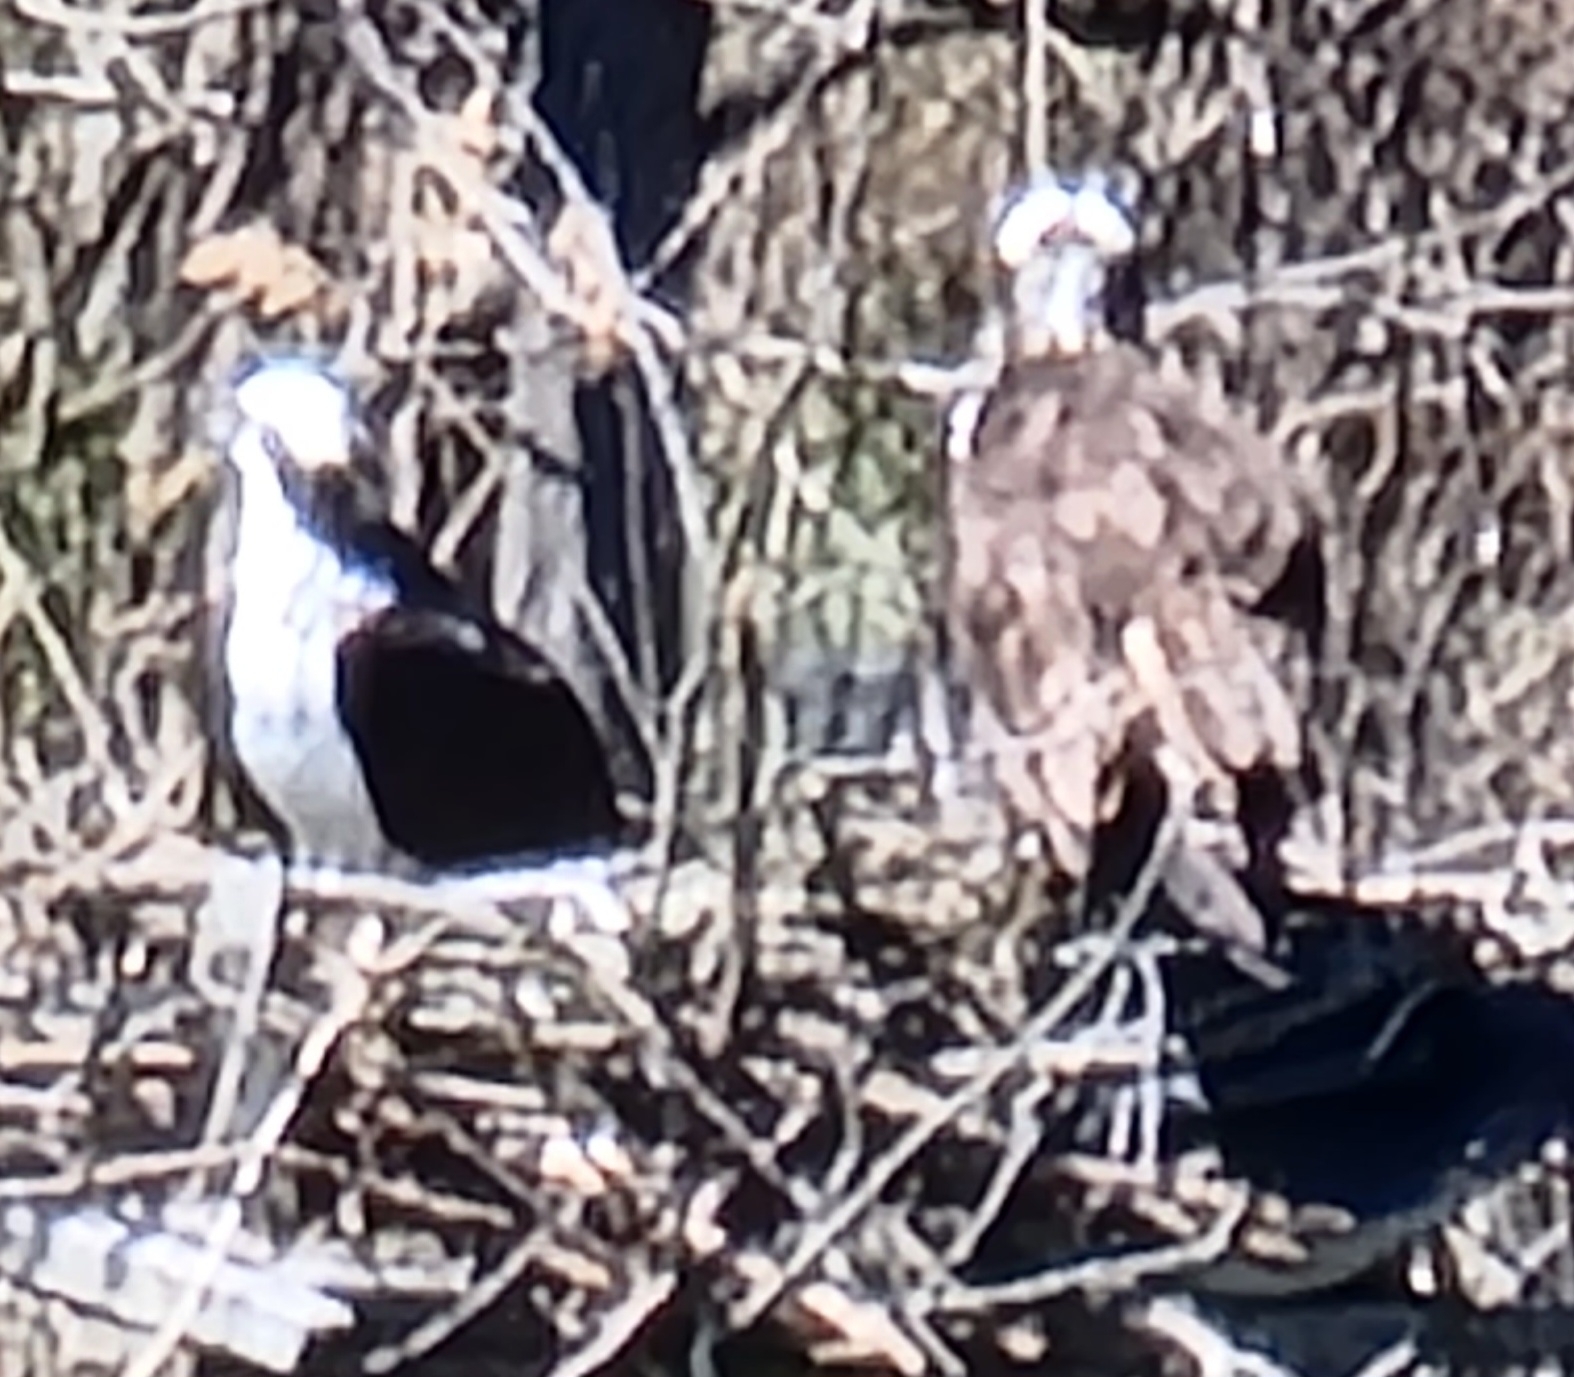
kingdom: Animalia
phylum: Chordata
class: Aves
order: Accipitriformes
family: Pandionidae
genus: Pandion
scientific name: Pandion haliaetus
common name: Osprey
